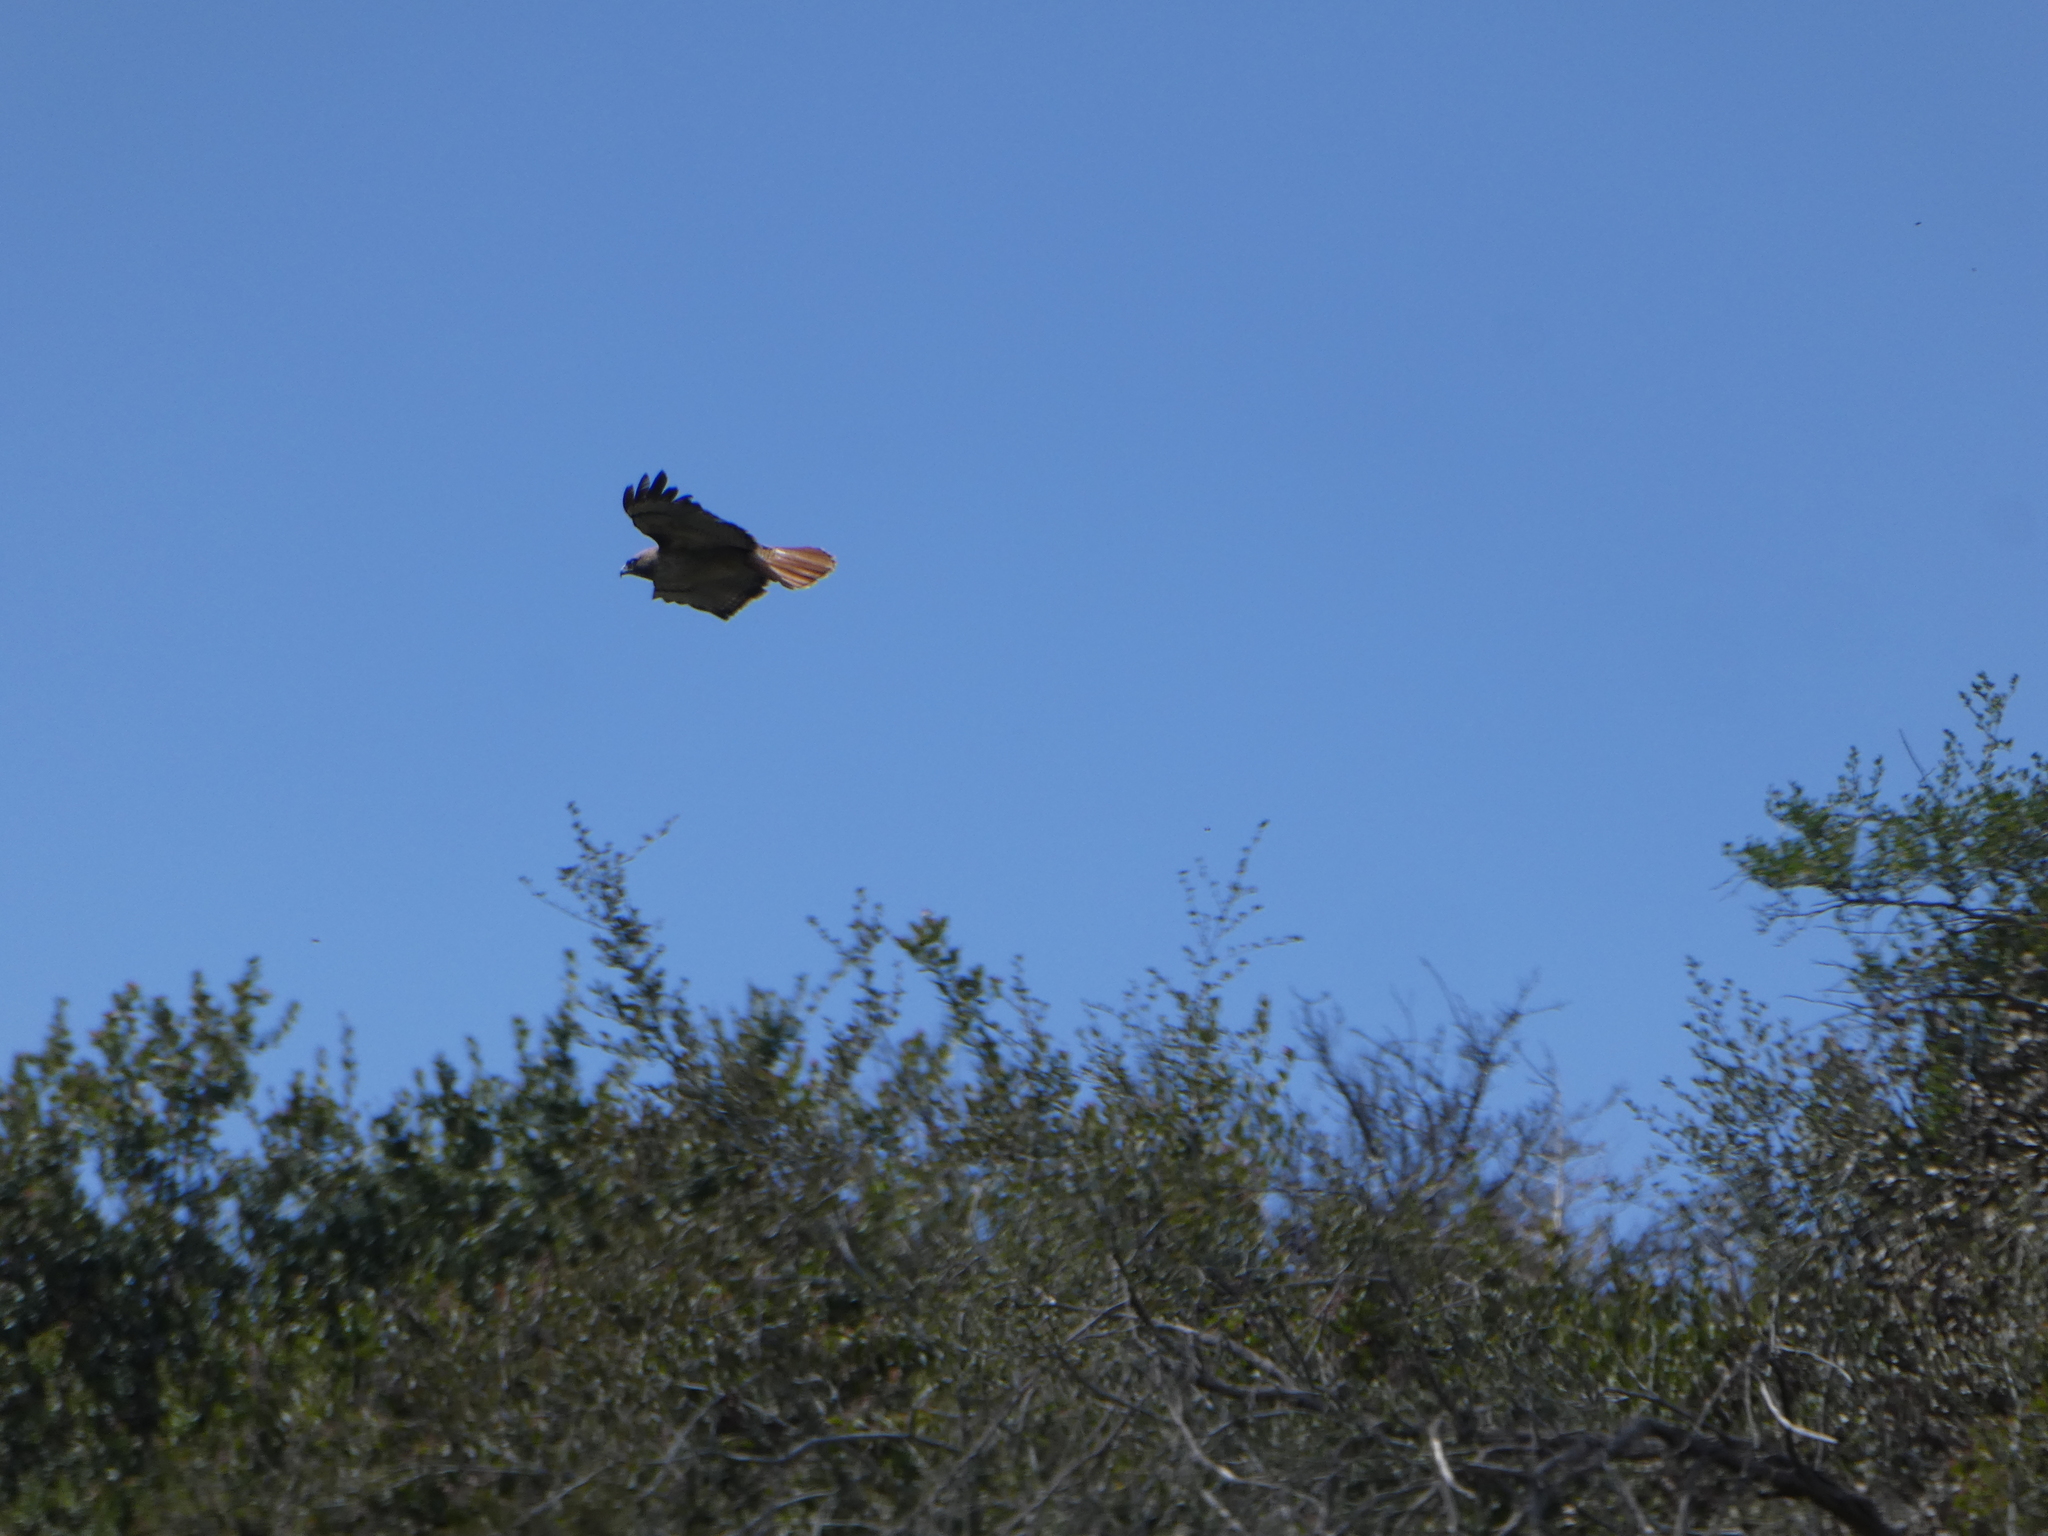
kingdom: Animalia
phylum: Chordata
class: Aves
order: Accipitriformes
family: Accipitridae
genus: Buteo
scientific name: Buteo jamaicensis
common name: Red-tailed hawk
